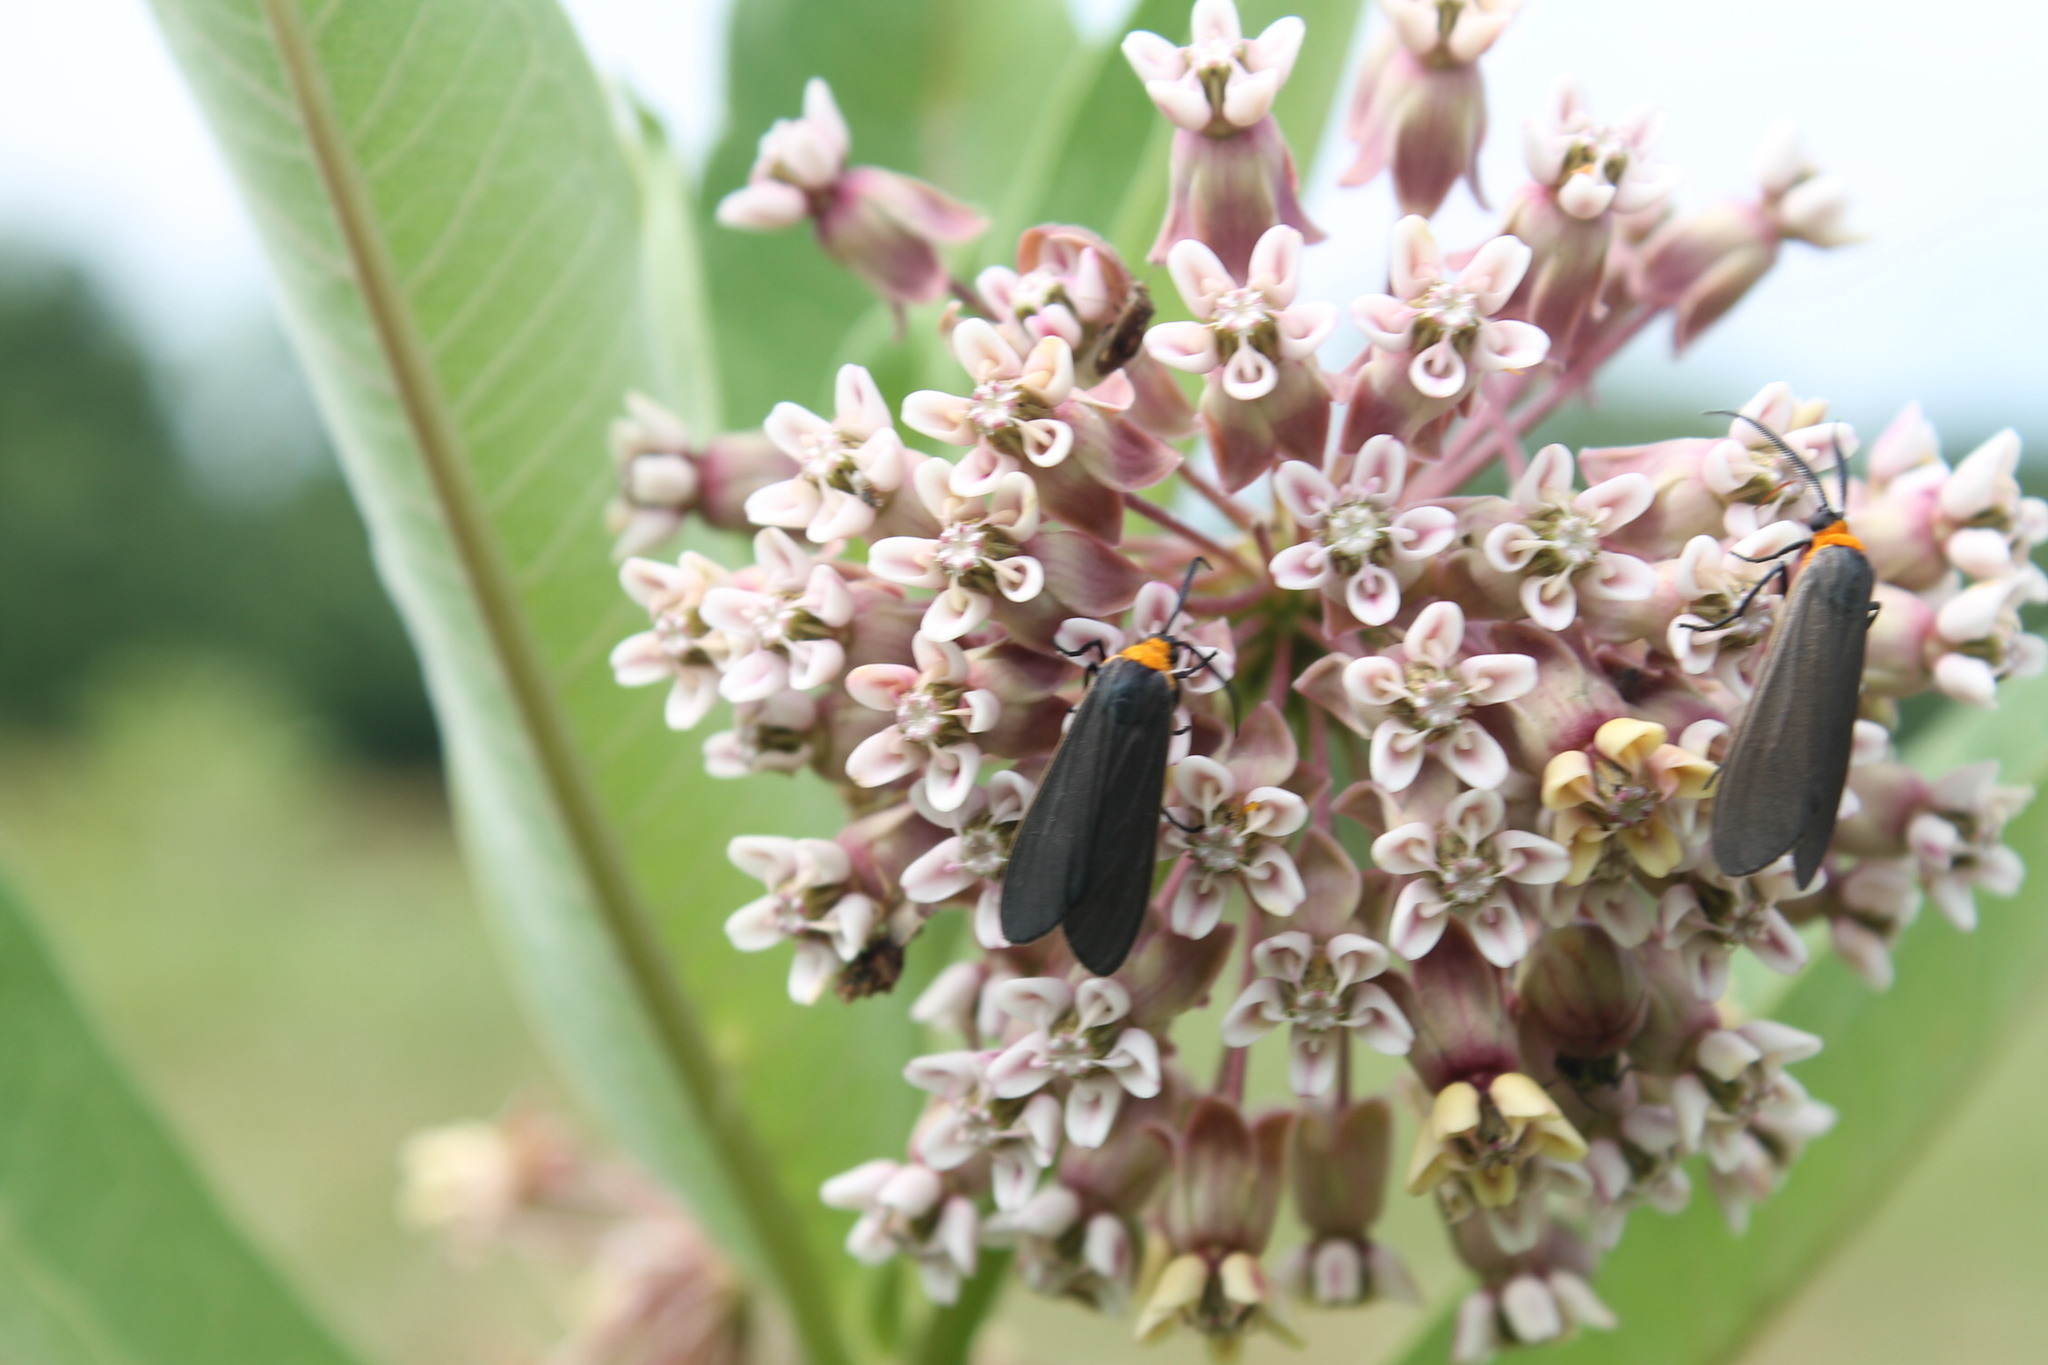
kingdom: Animalia
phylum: Arthropoda
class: Insecta
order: Lepidoptera
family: Erebidae
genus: Cisseps
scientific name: Cisseps fulvicollis
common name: Yellow-collared scape moth
